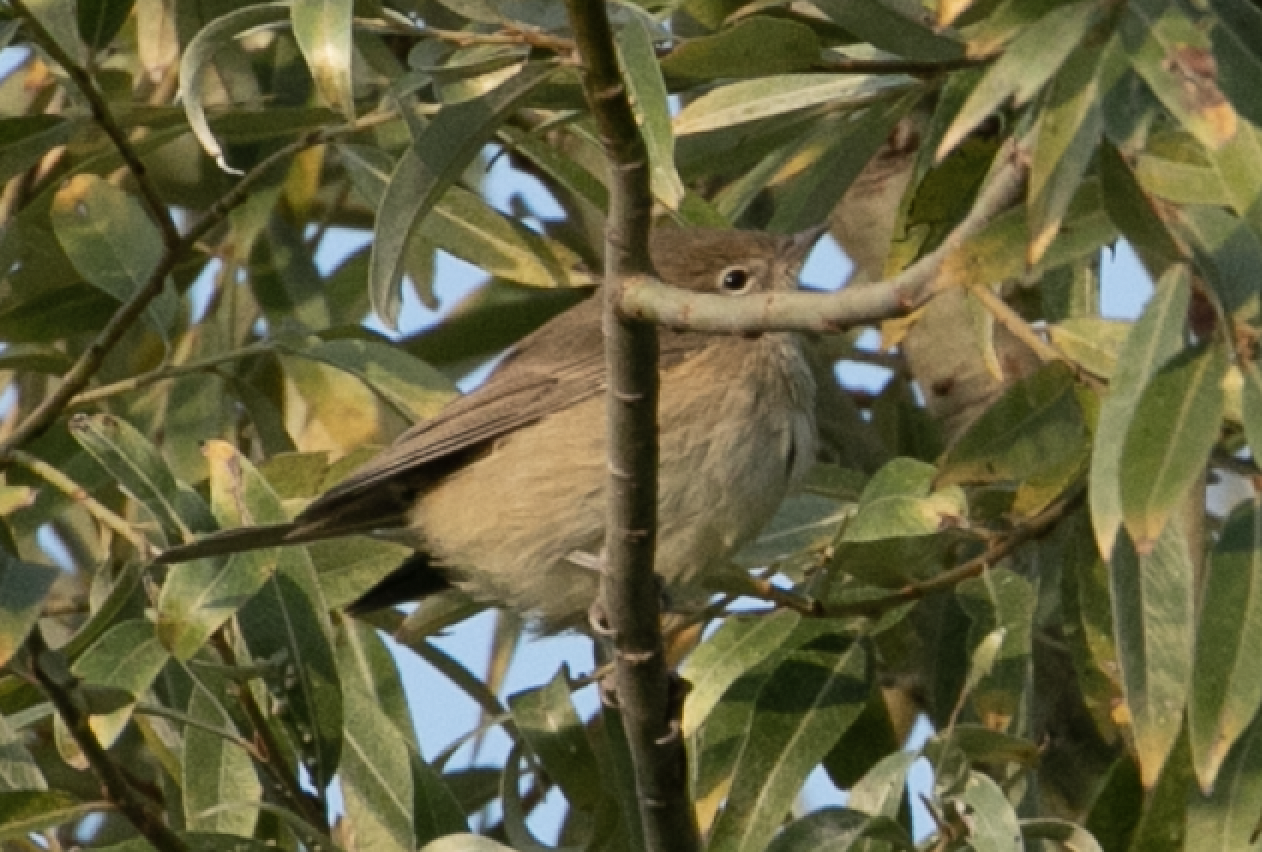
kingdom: Animalia
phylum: Chordata
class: Aves
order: Passeriformes
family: Sylviidae
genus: Sylvia
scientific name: Sylvia borin
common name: Garden warbler
